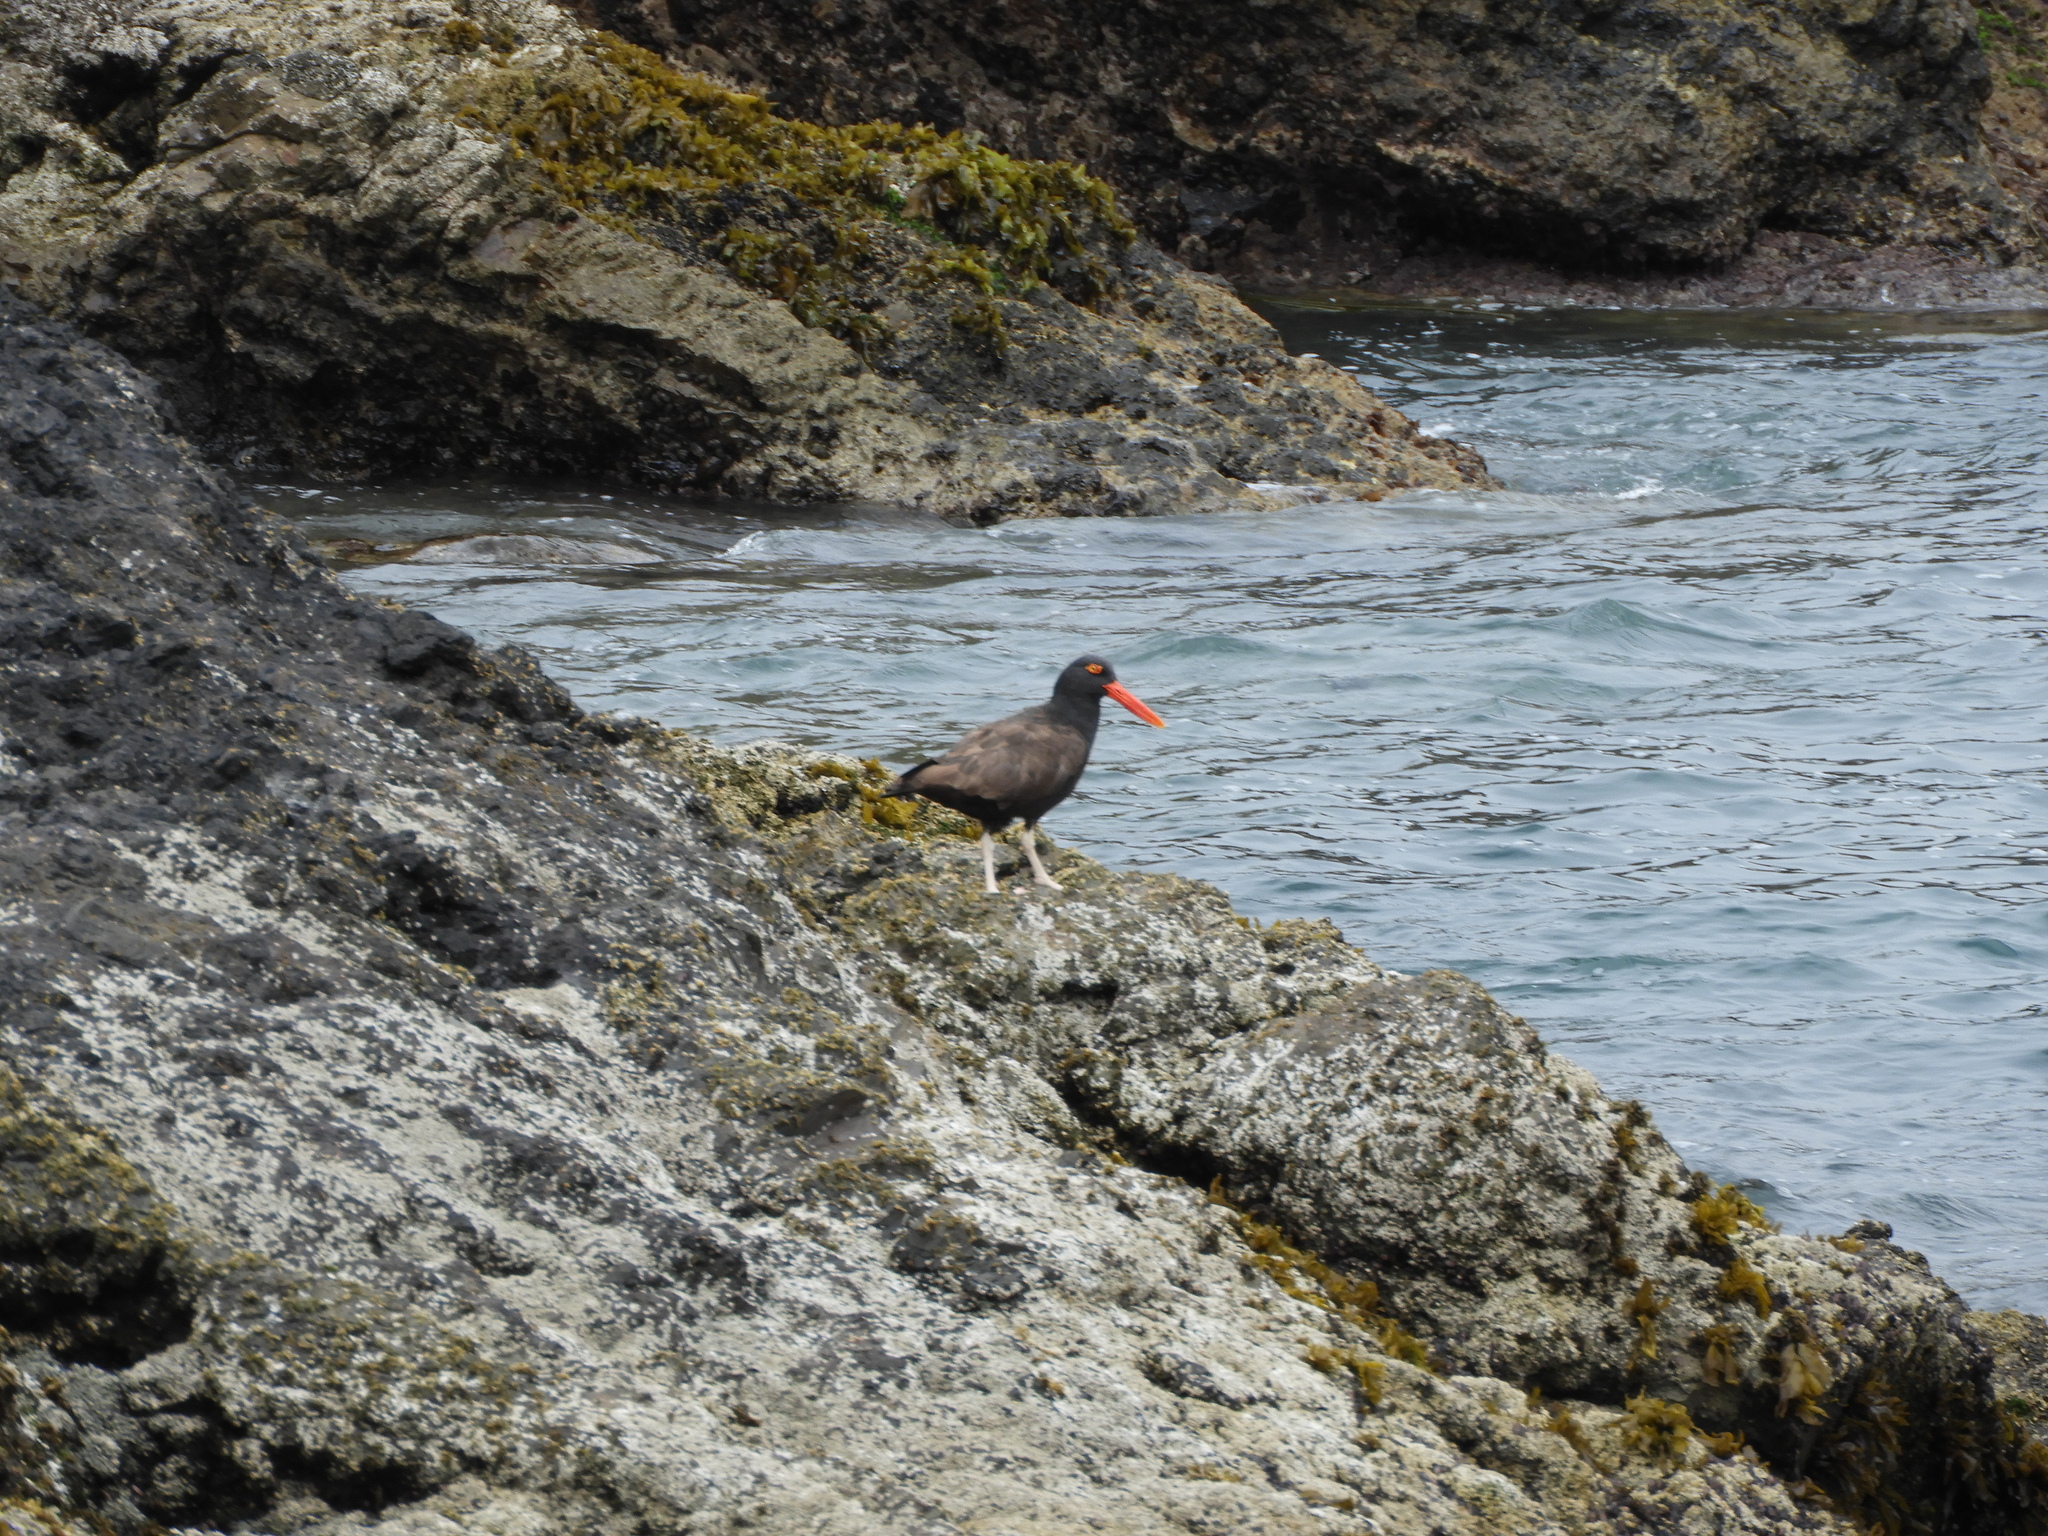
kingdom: Animalia
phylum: Chordata
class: Aves
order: Charadriiformes
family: Haematopodidae
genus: Haematopus
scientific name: Haematopus ater
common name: Blackish oystercatcher
